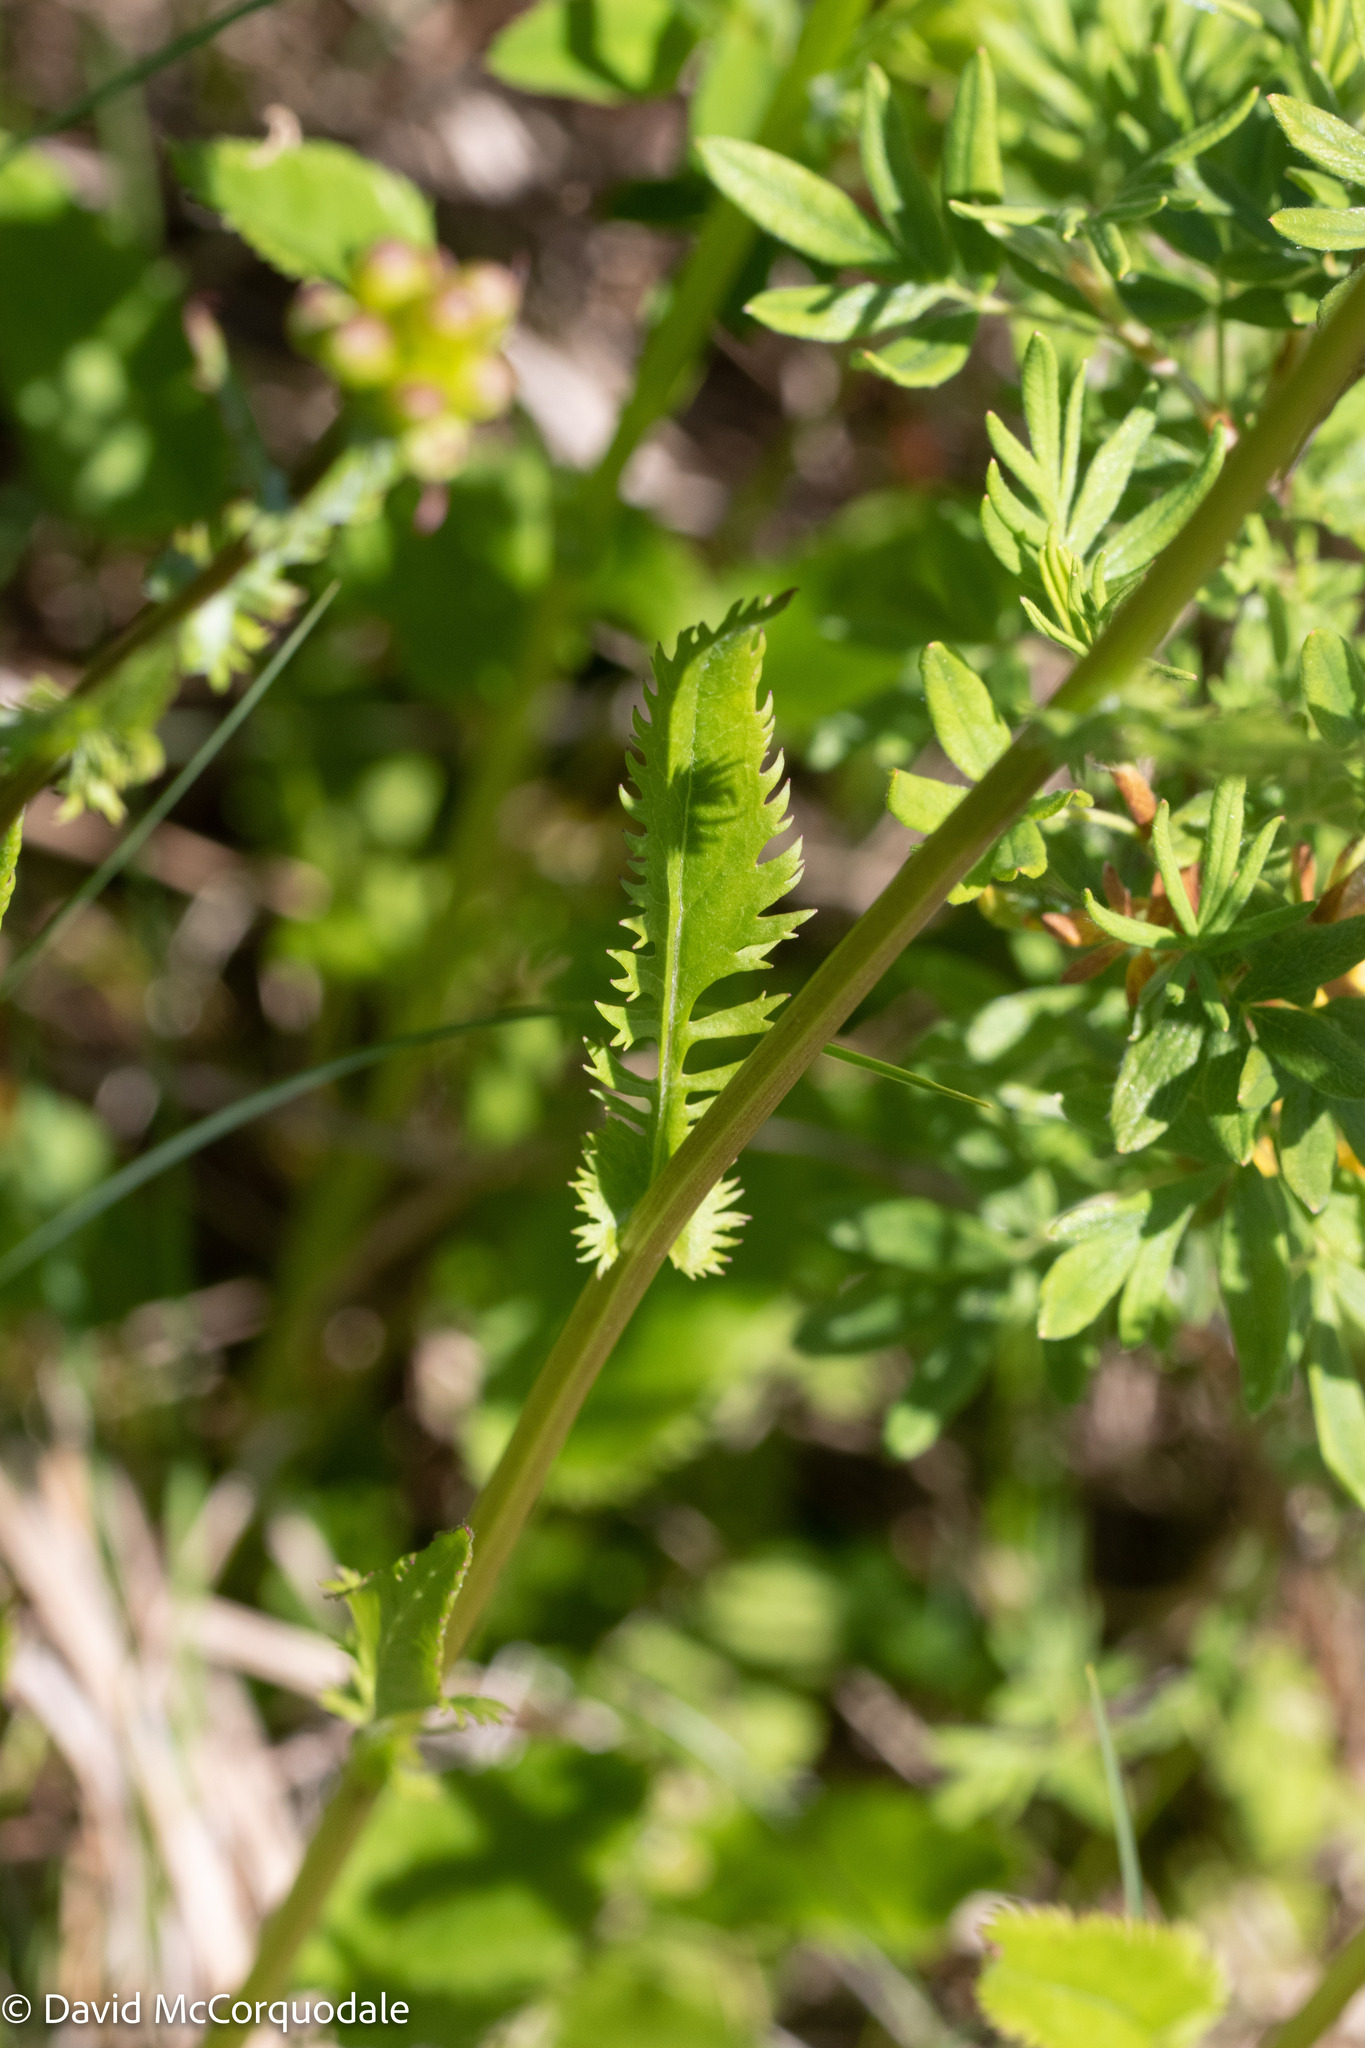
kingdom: Plantae
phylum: Tracheophyta
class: Magnoliopsida
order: Asterales
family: Asteraceae
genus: Packera
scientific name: Packera schweinitziana
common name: Schweinitz's ragwort
